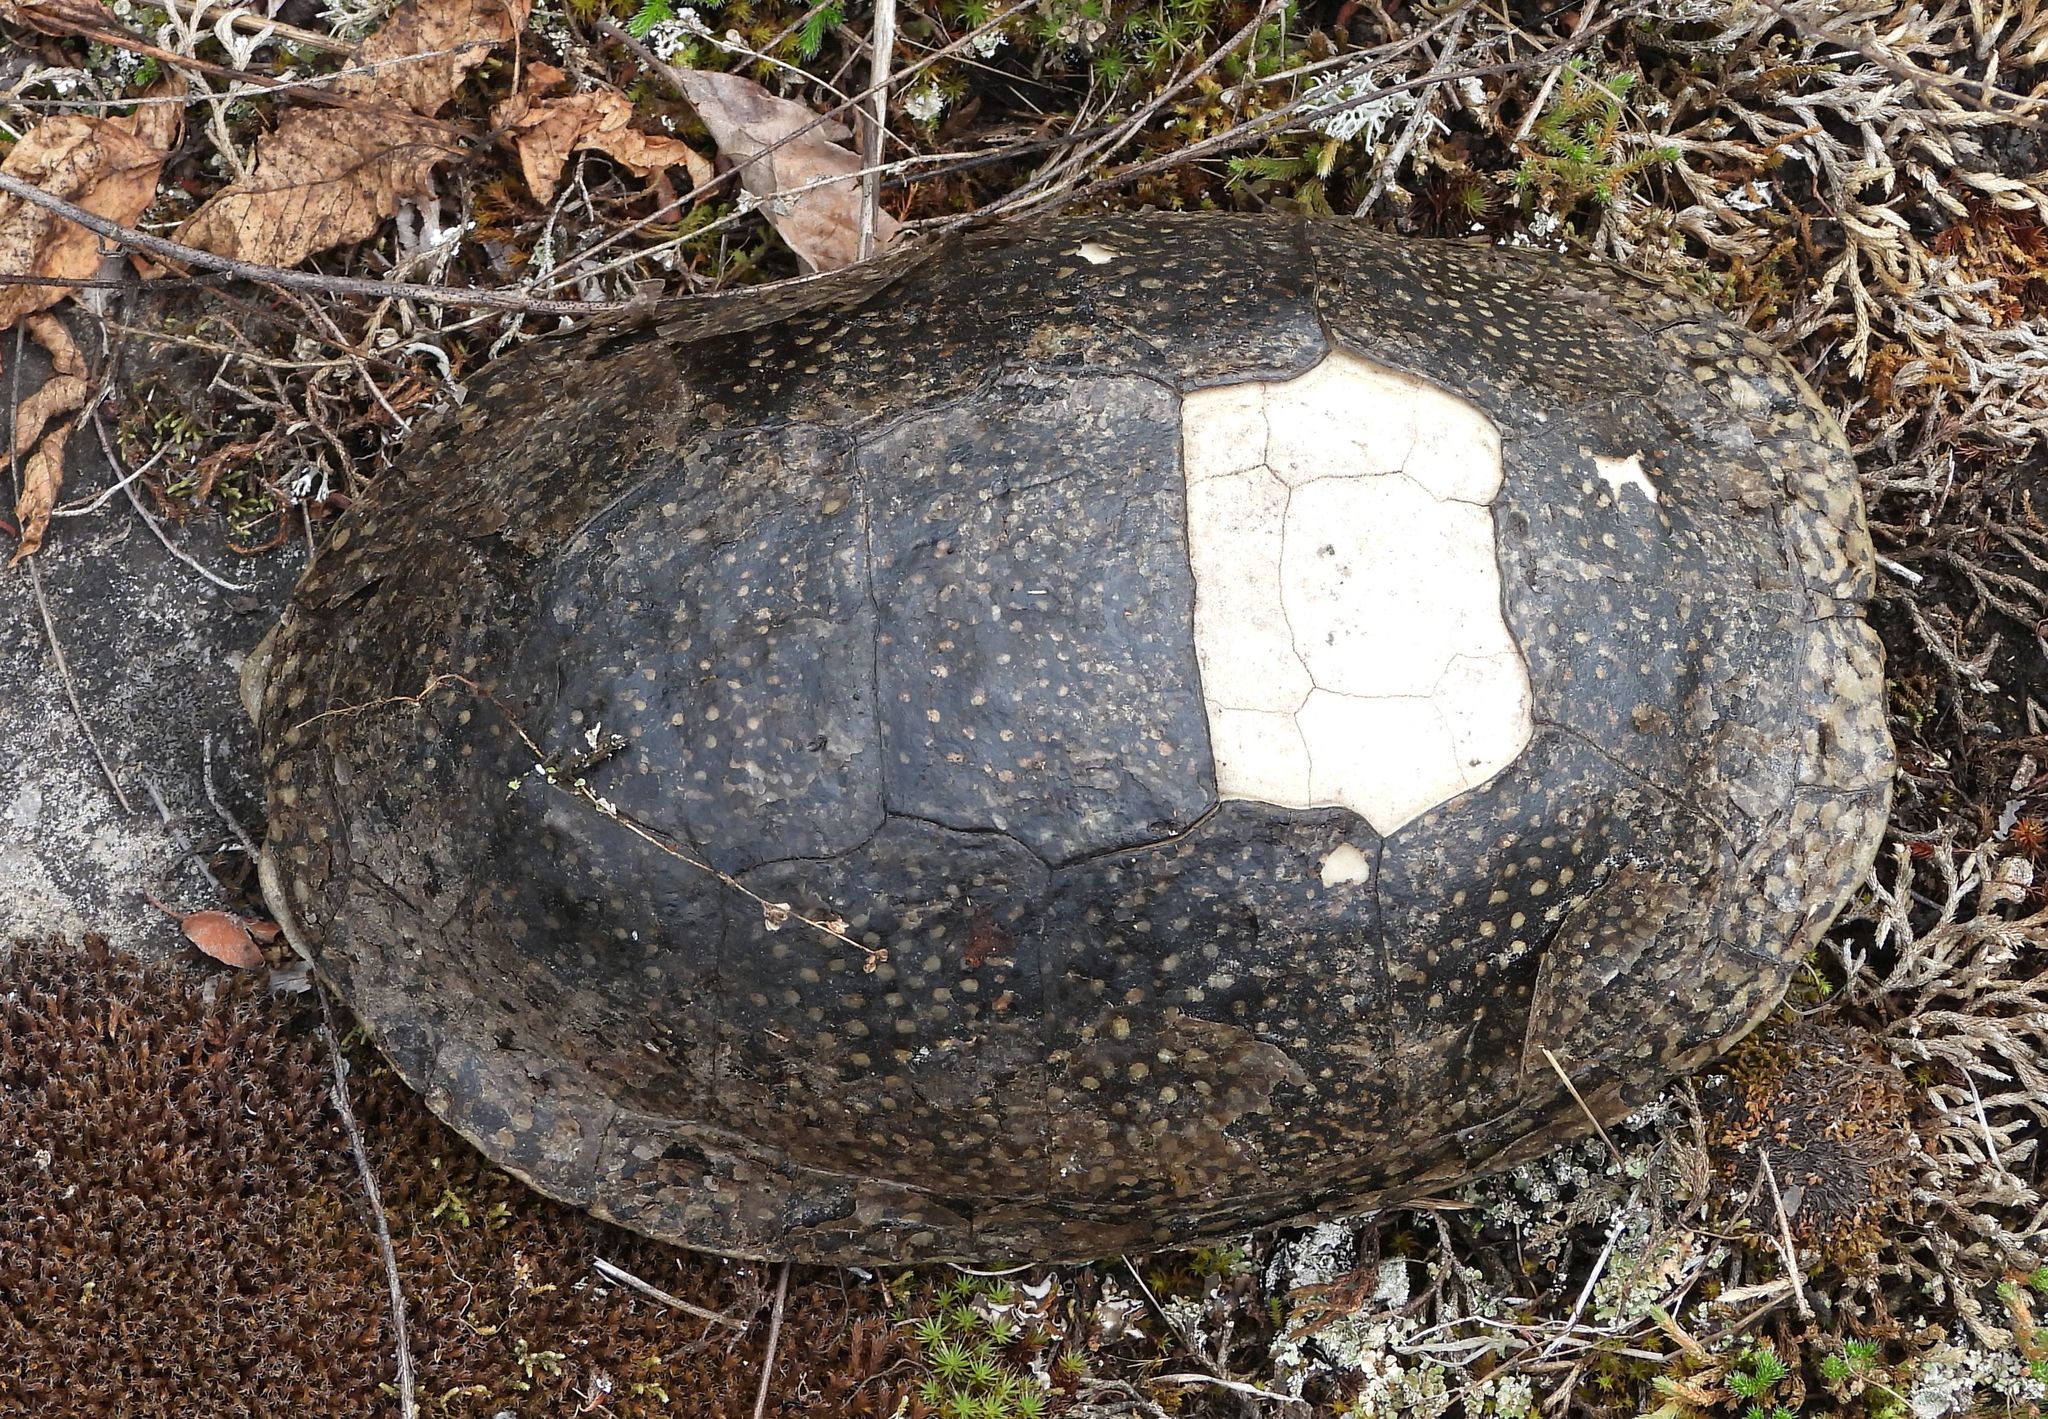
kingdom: Animalia
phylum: Chordata
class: Testudines
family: Emydidae
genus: Emys
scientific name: Emys blandingii
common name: Blanding's turtle
